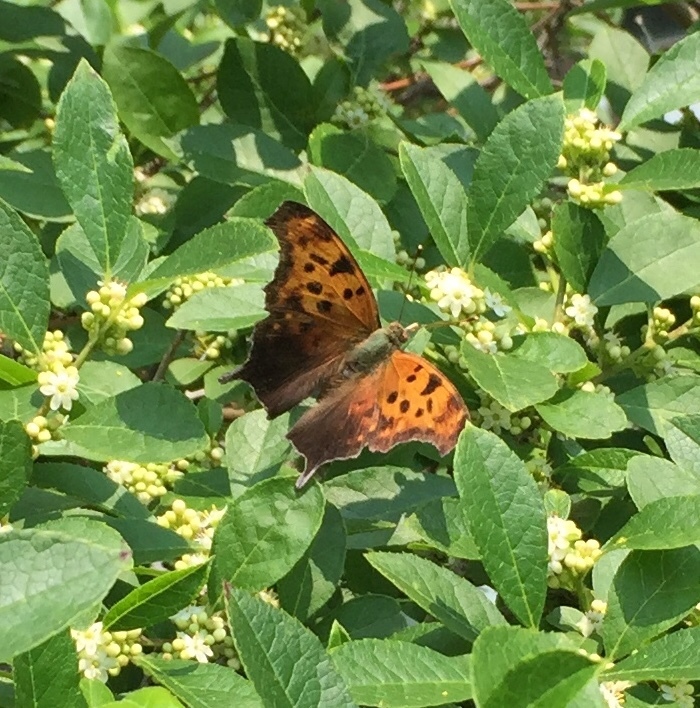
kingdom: Animalia
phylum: Arthropoda
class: Insecta
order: Lepidoptera
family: Nymphalidae
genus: Polygonia
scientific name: Polygonia interrogationis
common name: Question mark
